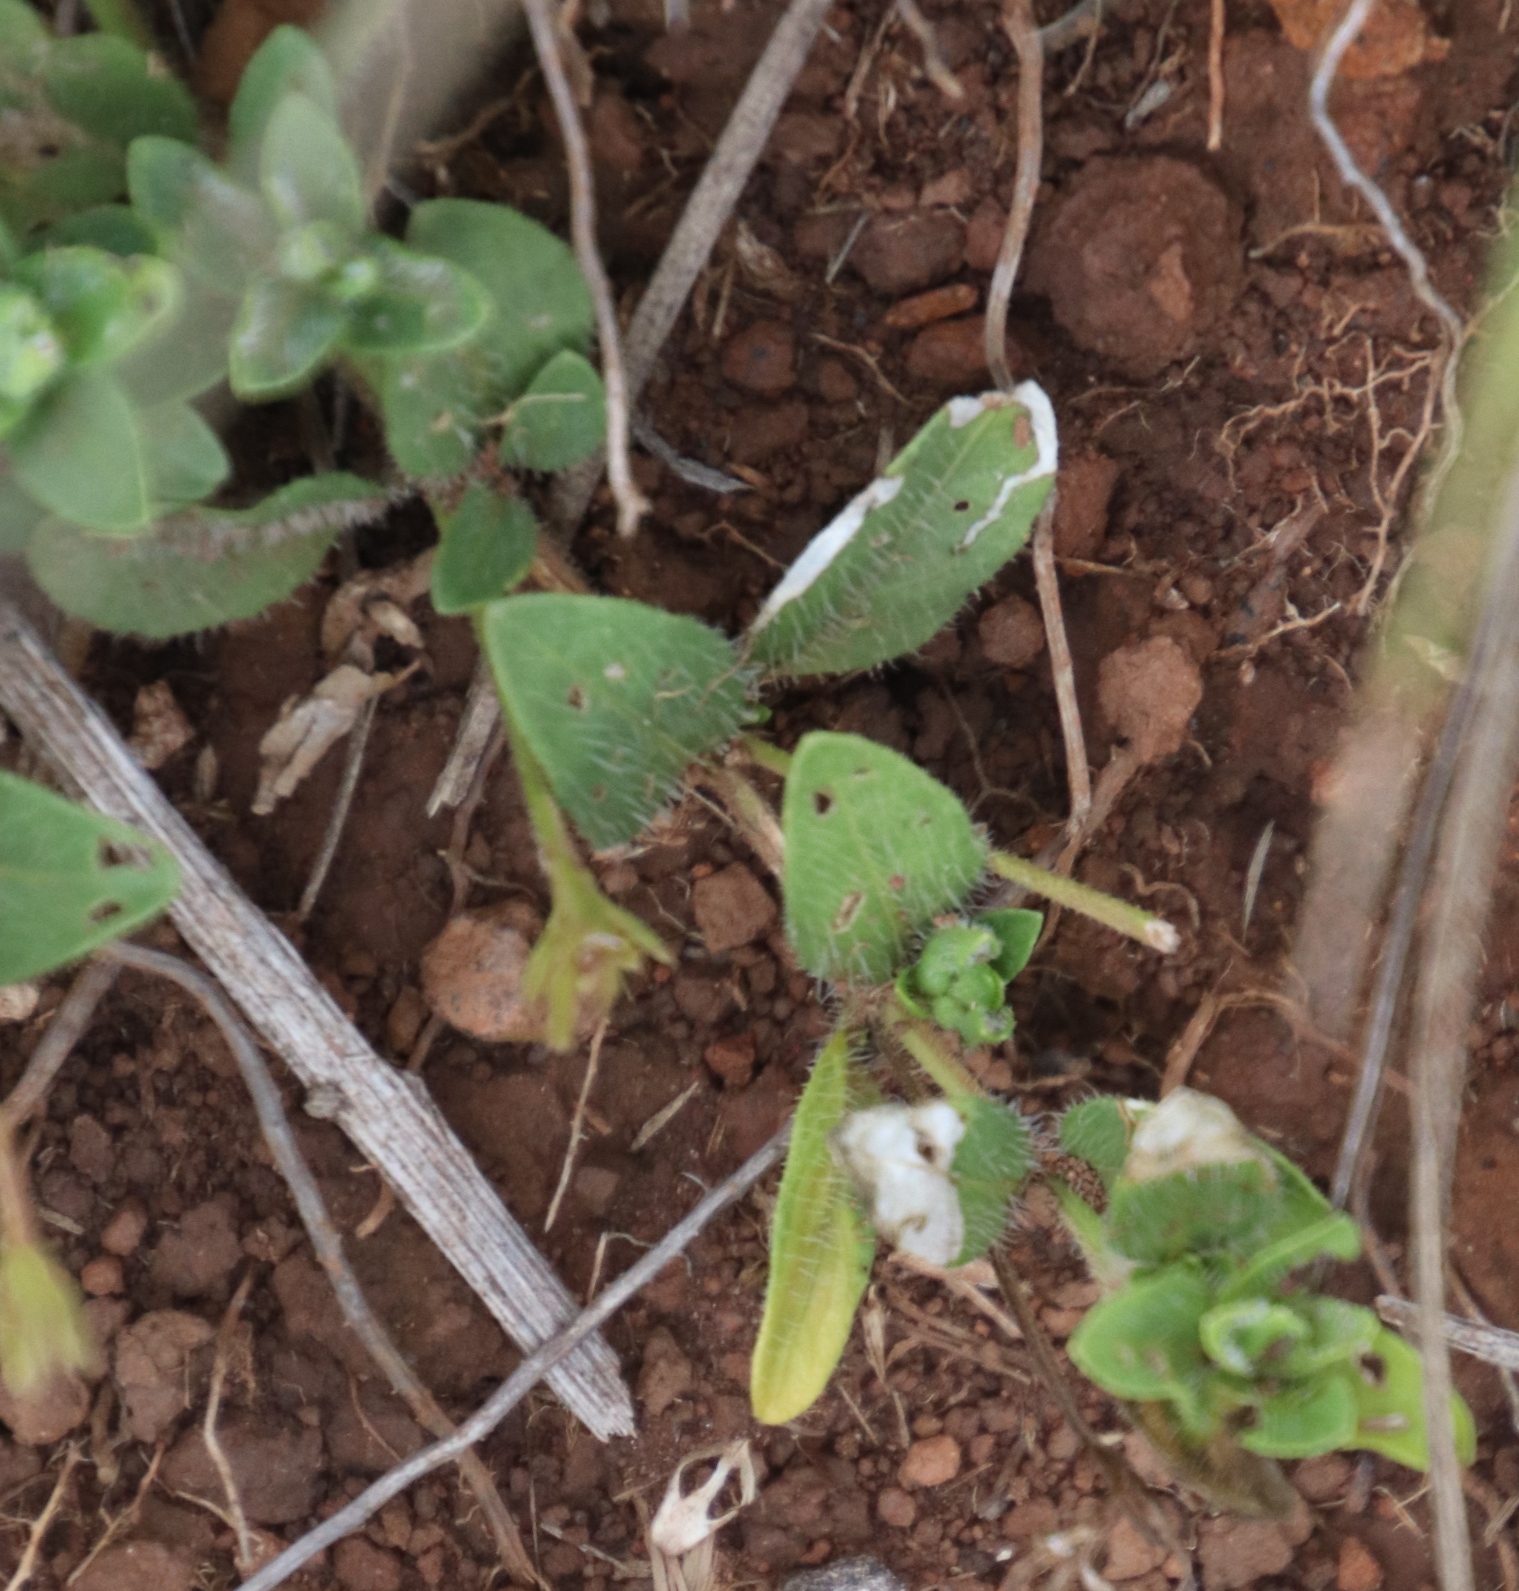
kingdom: Plantae
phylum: Tracheophyta
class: Magnoliopsida
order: Lamiales
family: Acanthaceae
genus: Justicia
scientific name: Justicia anagalloides
